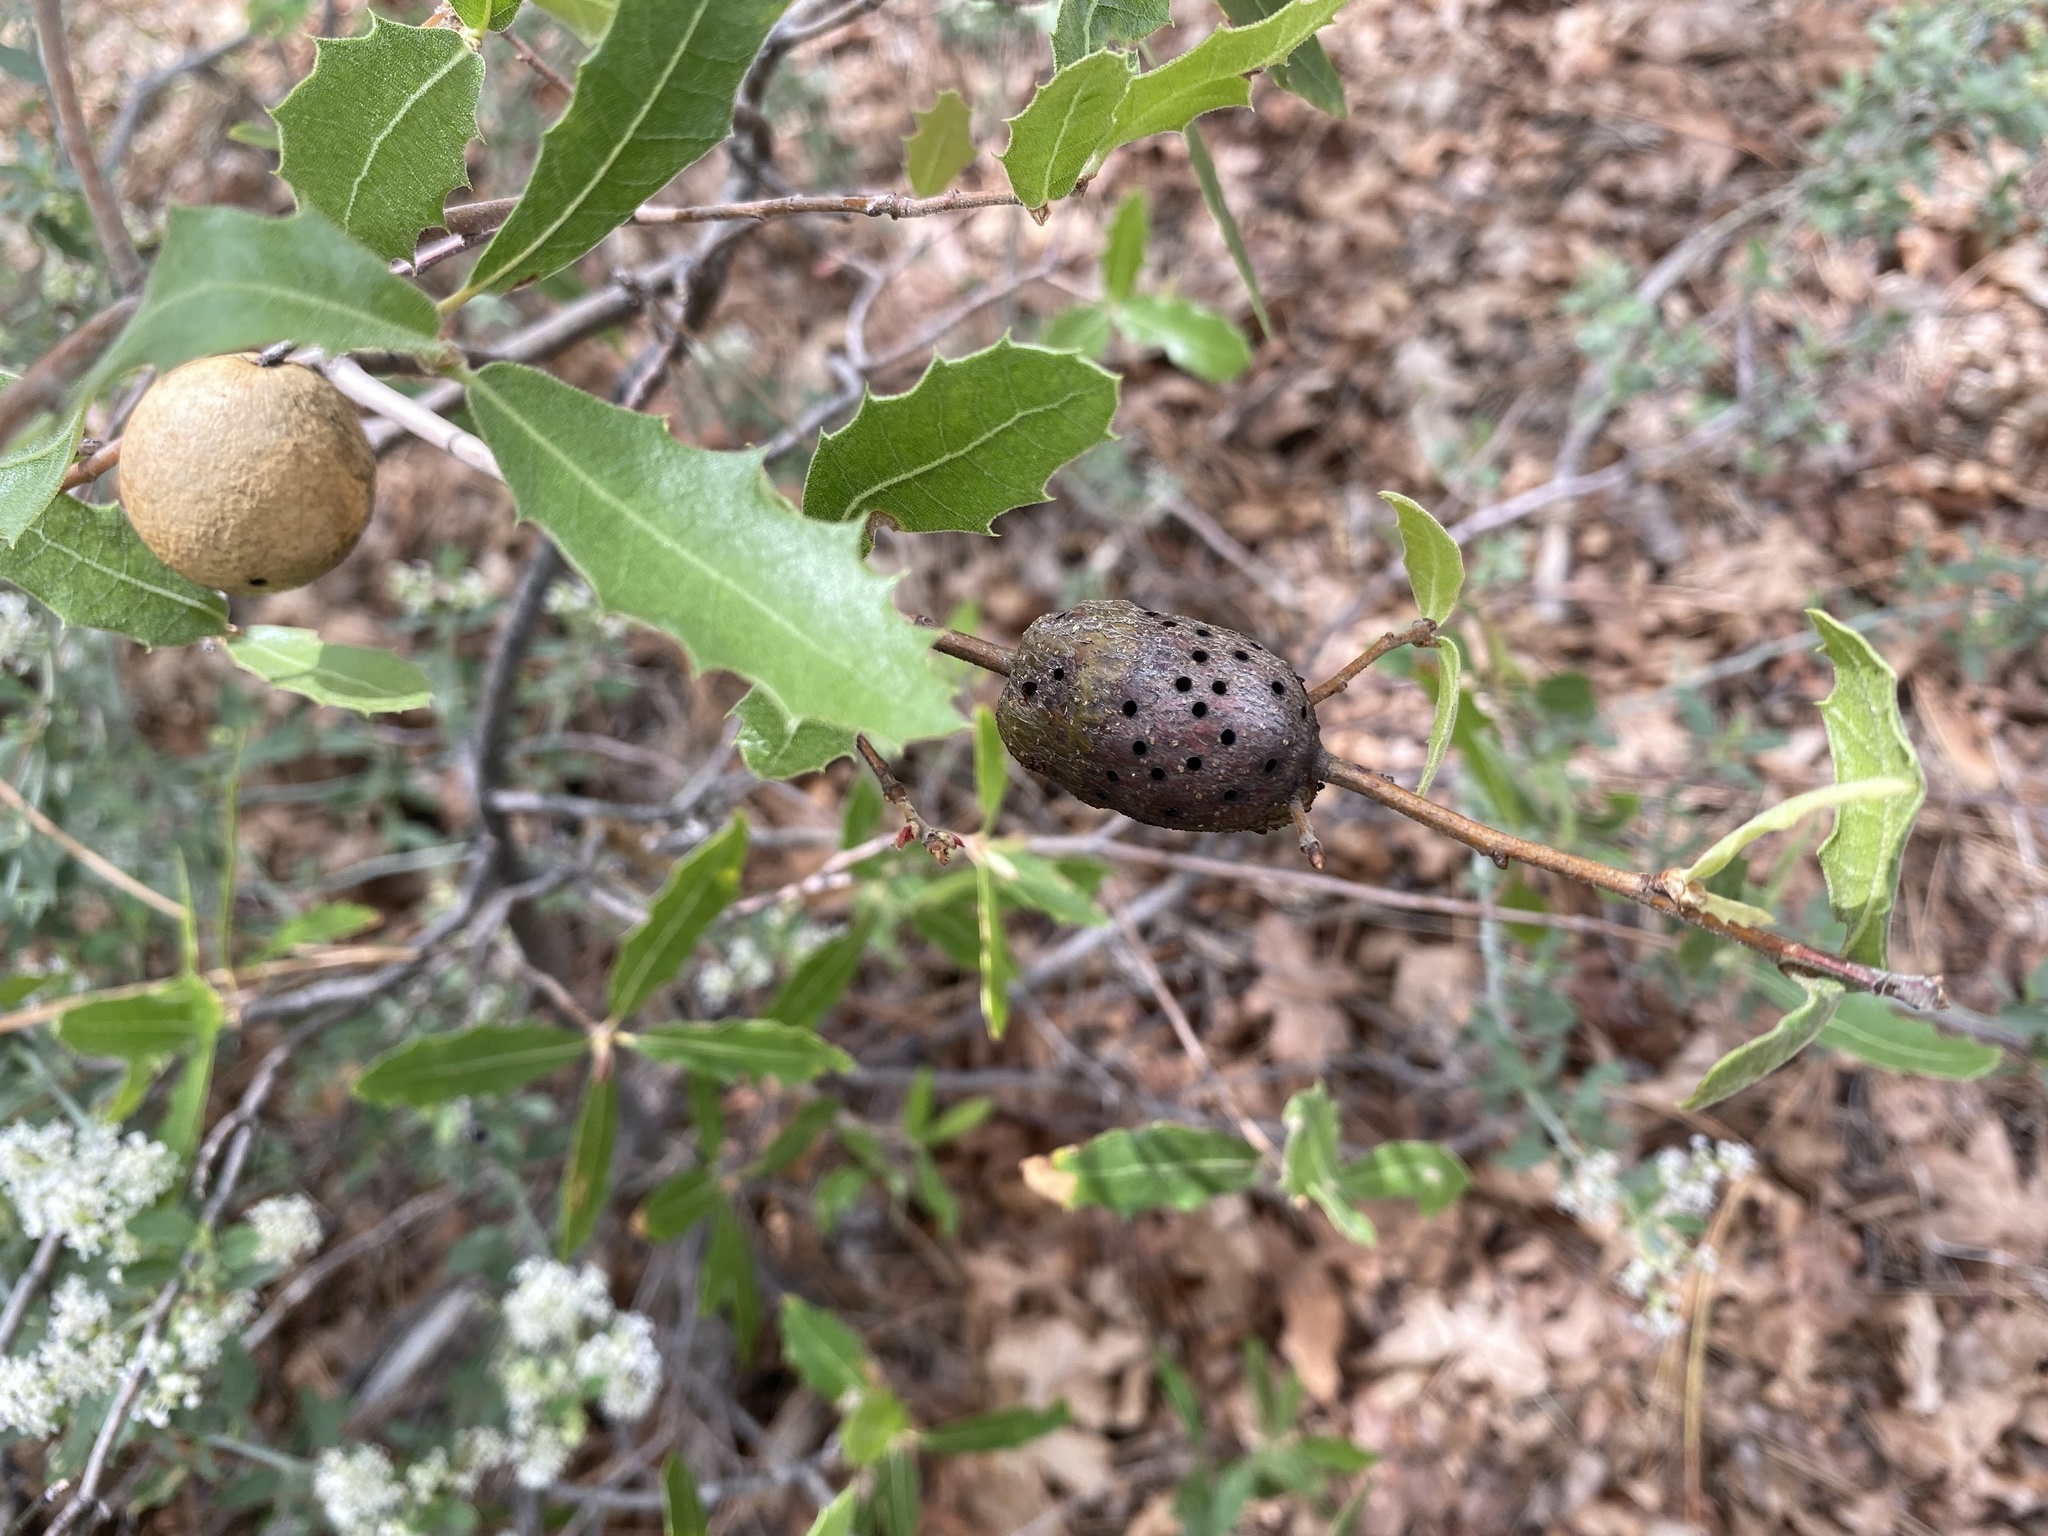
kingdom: Animalia
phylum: Arthropoda
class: Insecta
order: Hymenoptera
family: Cynipidae
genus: Kokkocynips
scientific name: Kokkocynips coxii
